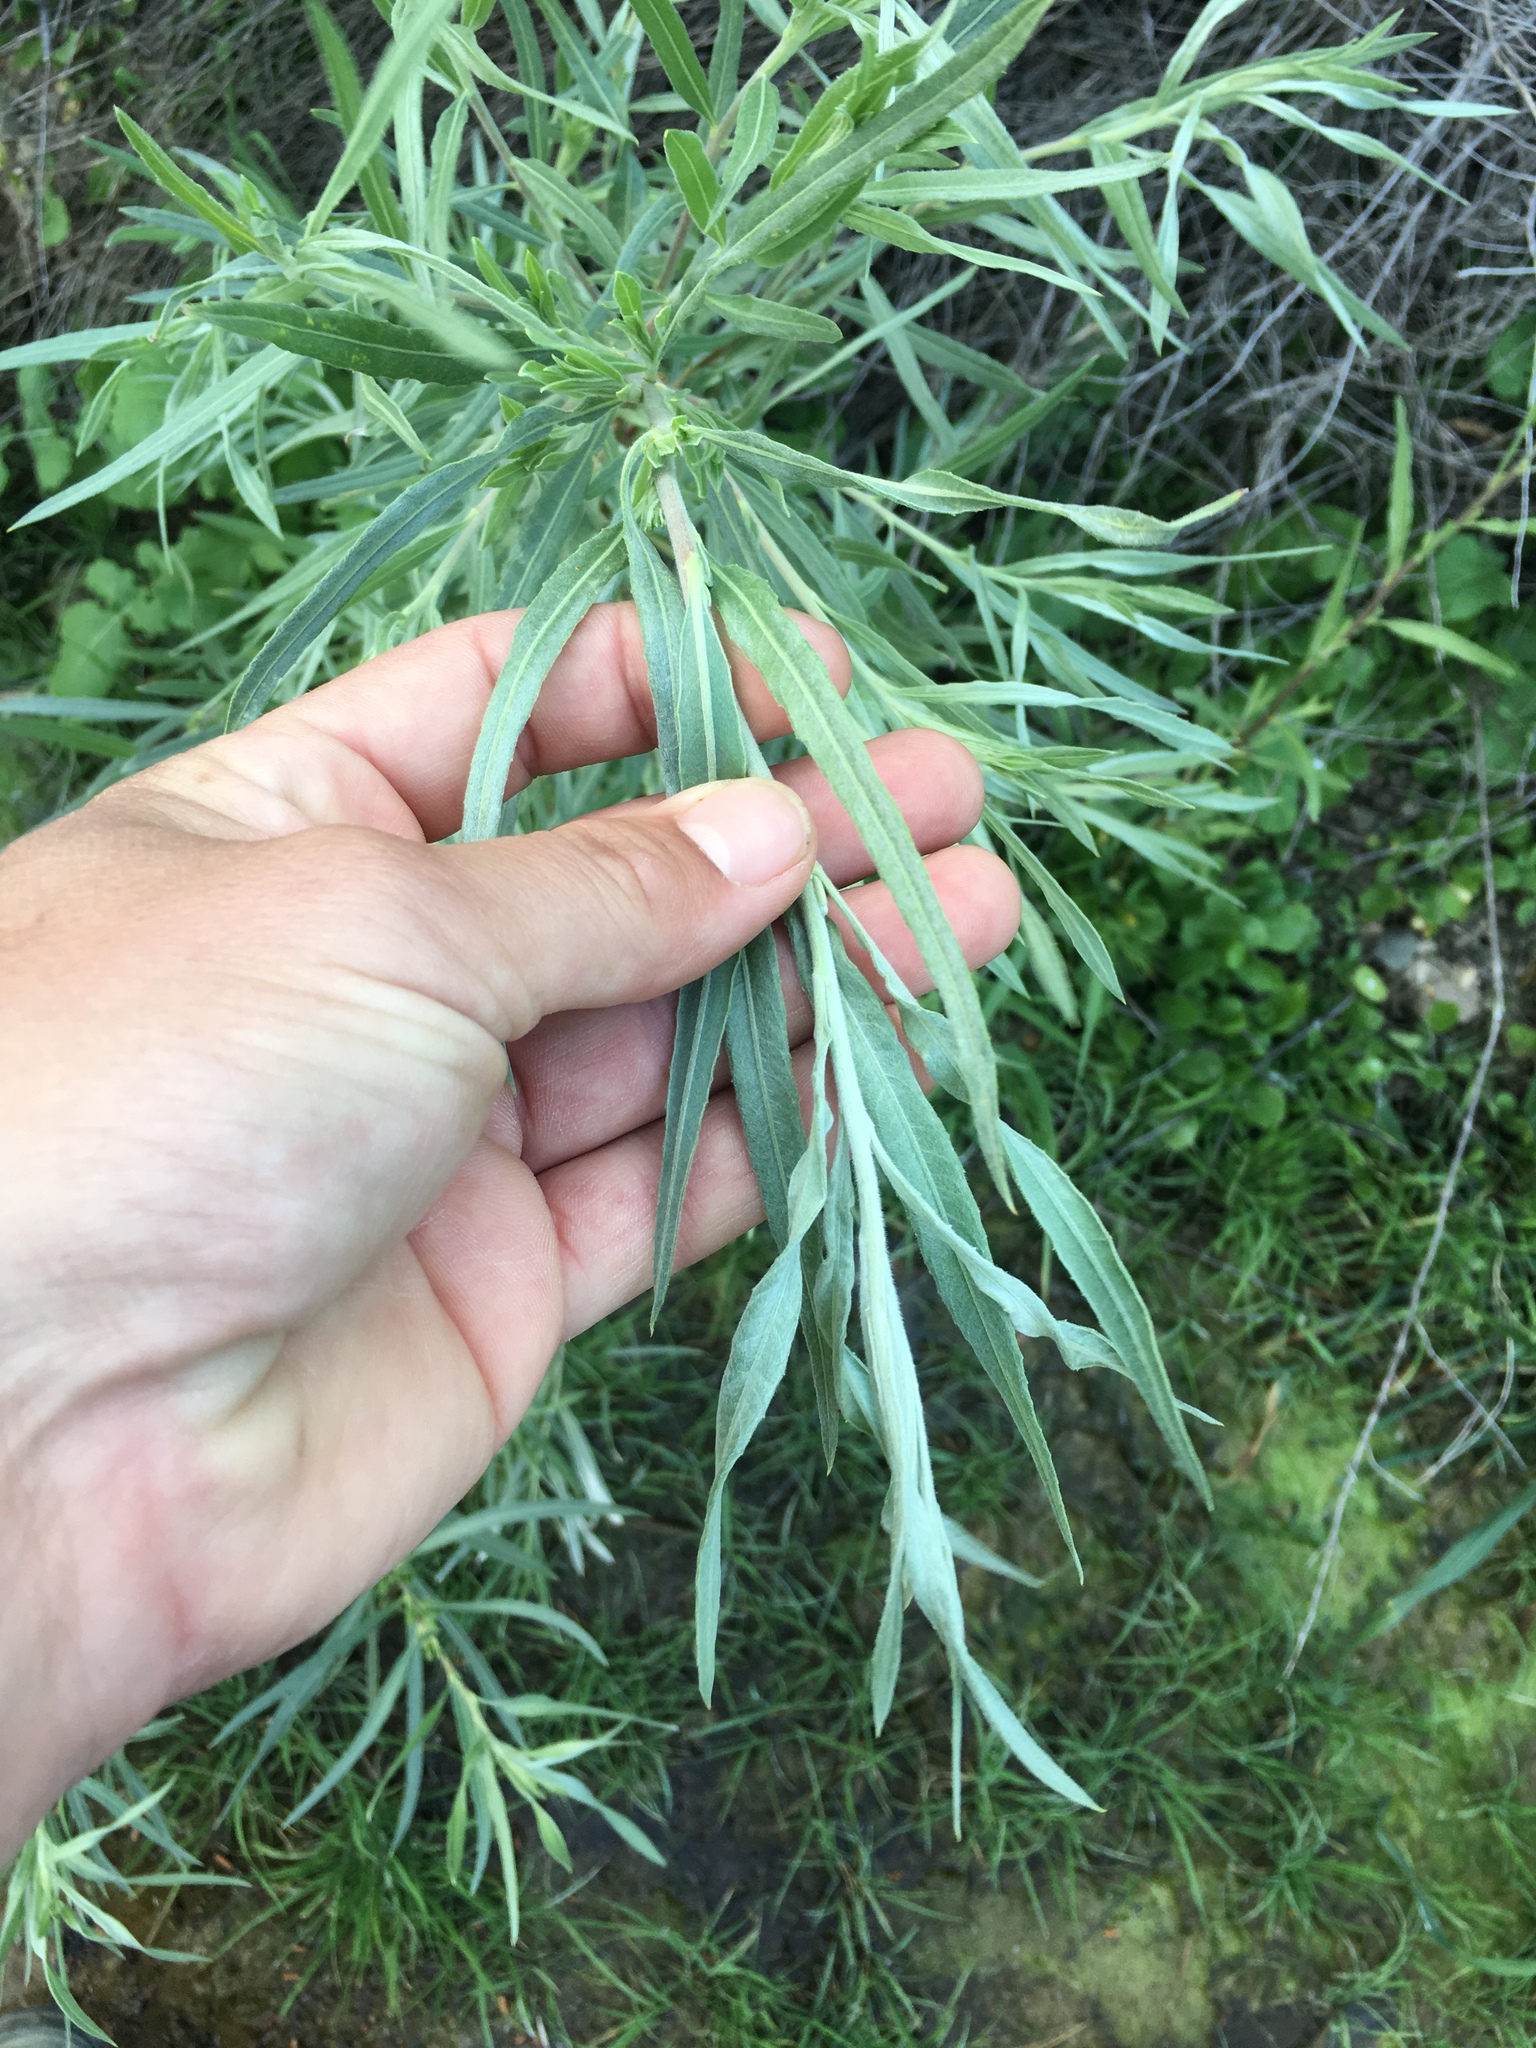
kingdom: Plantae
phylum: Tracheophyta
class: Magnoliopsida
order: Malpighiales
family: Salicaceae
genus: Salix
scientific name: Salix exigua
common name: Coyote willow
